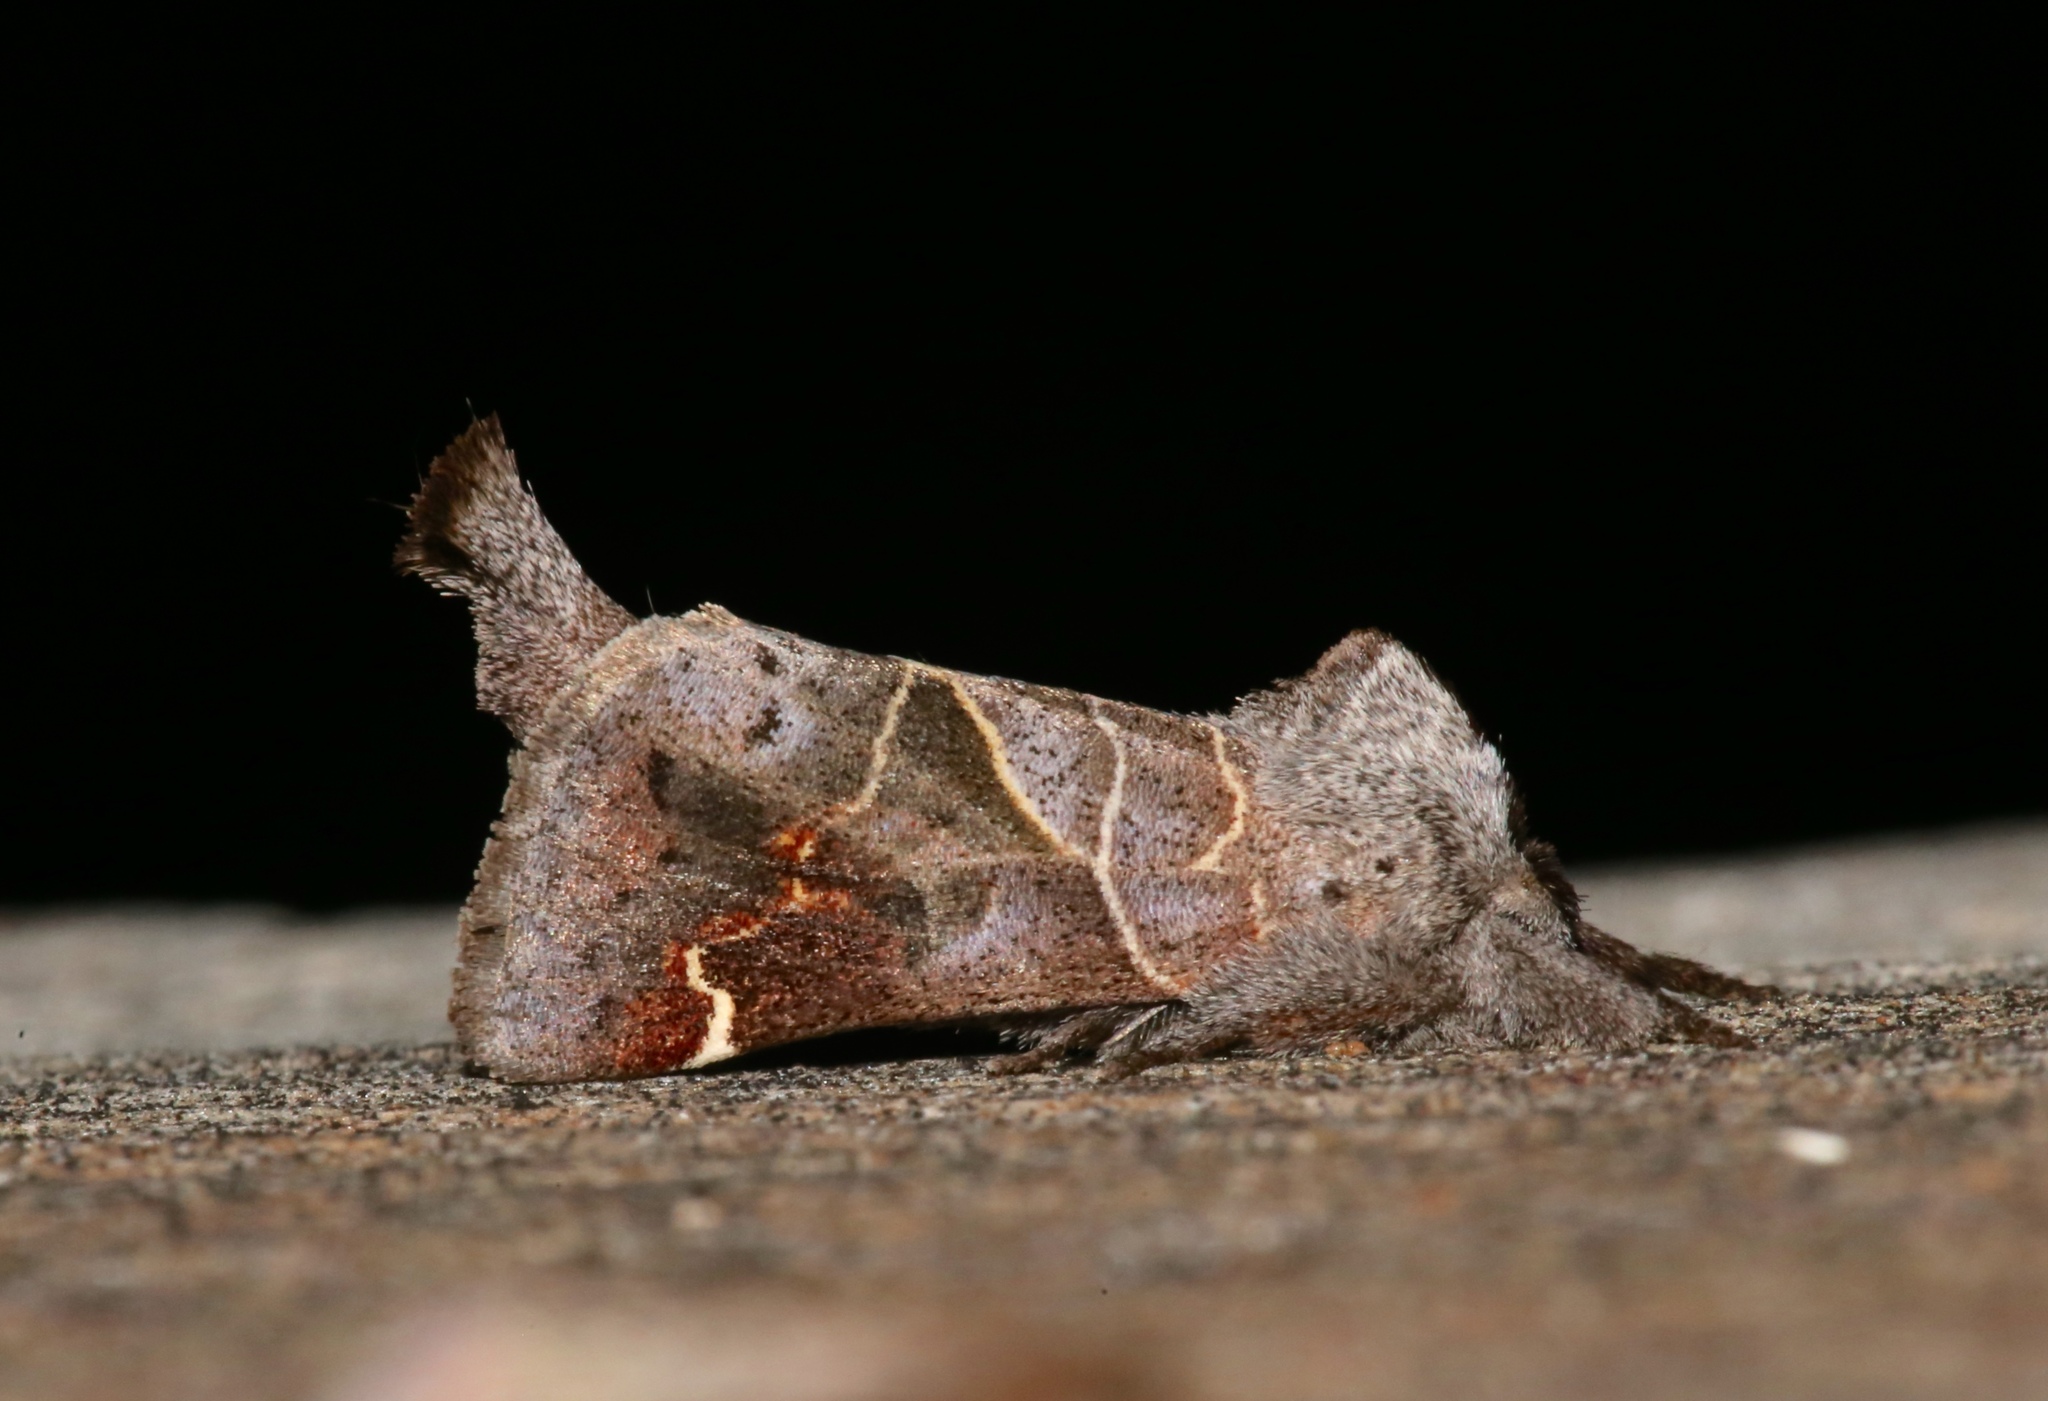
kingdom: Animalia
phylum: Arthropoda
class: Insecta
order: Lepidoptera
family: Notodontidae
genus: Clostera
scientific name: Clostera apicalis
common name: Apical prominent
